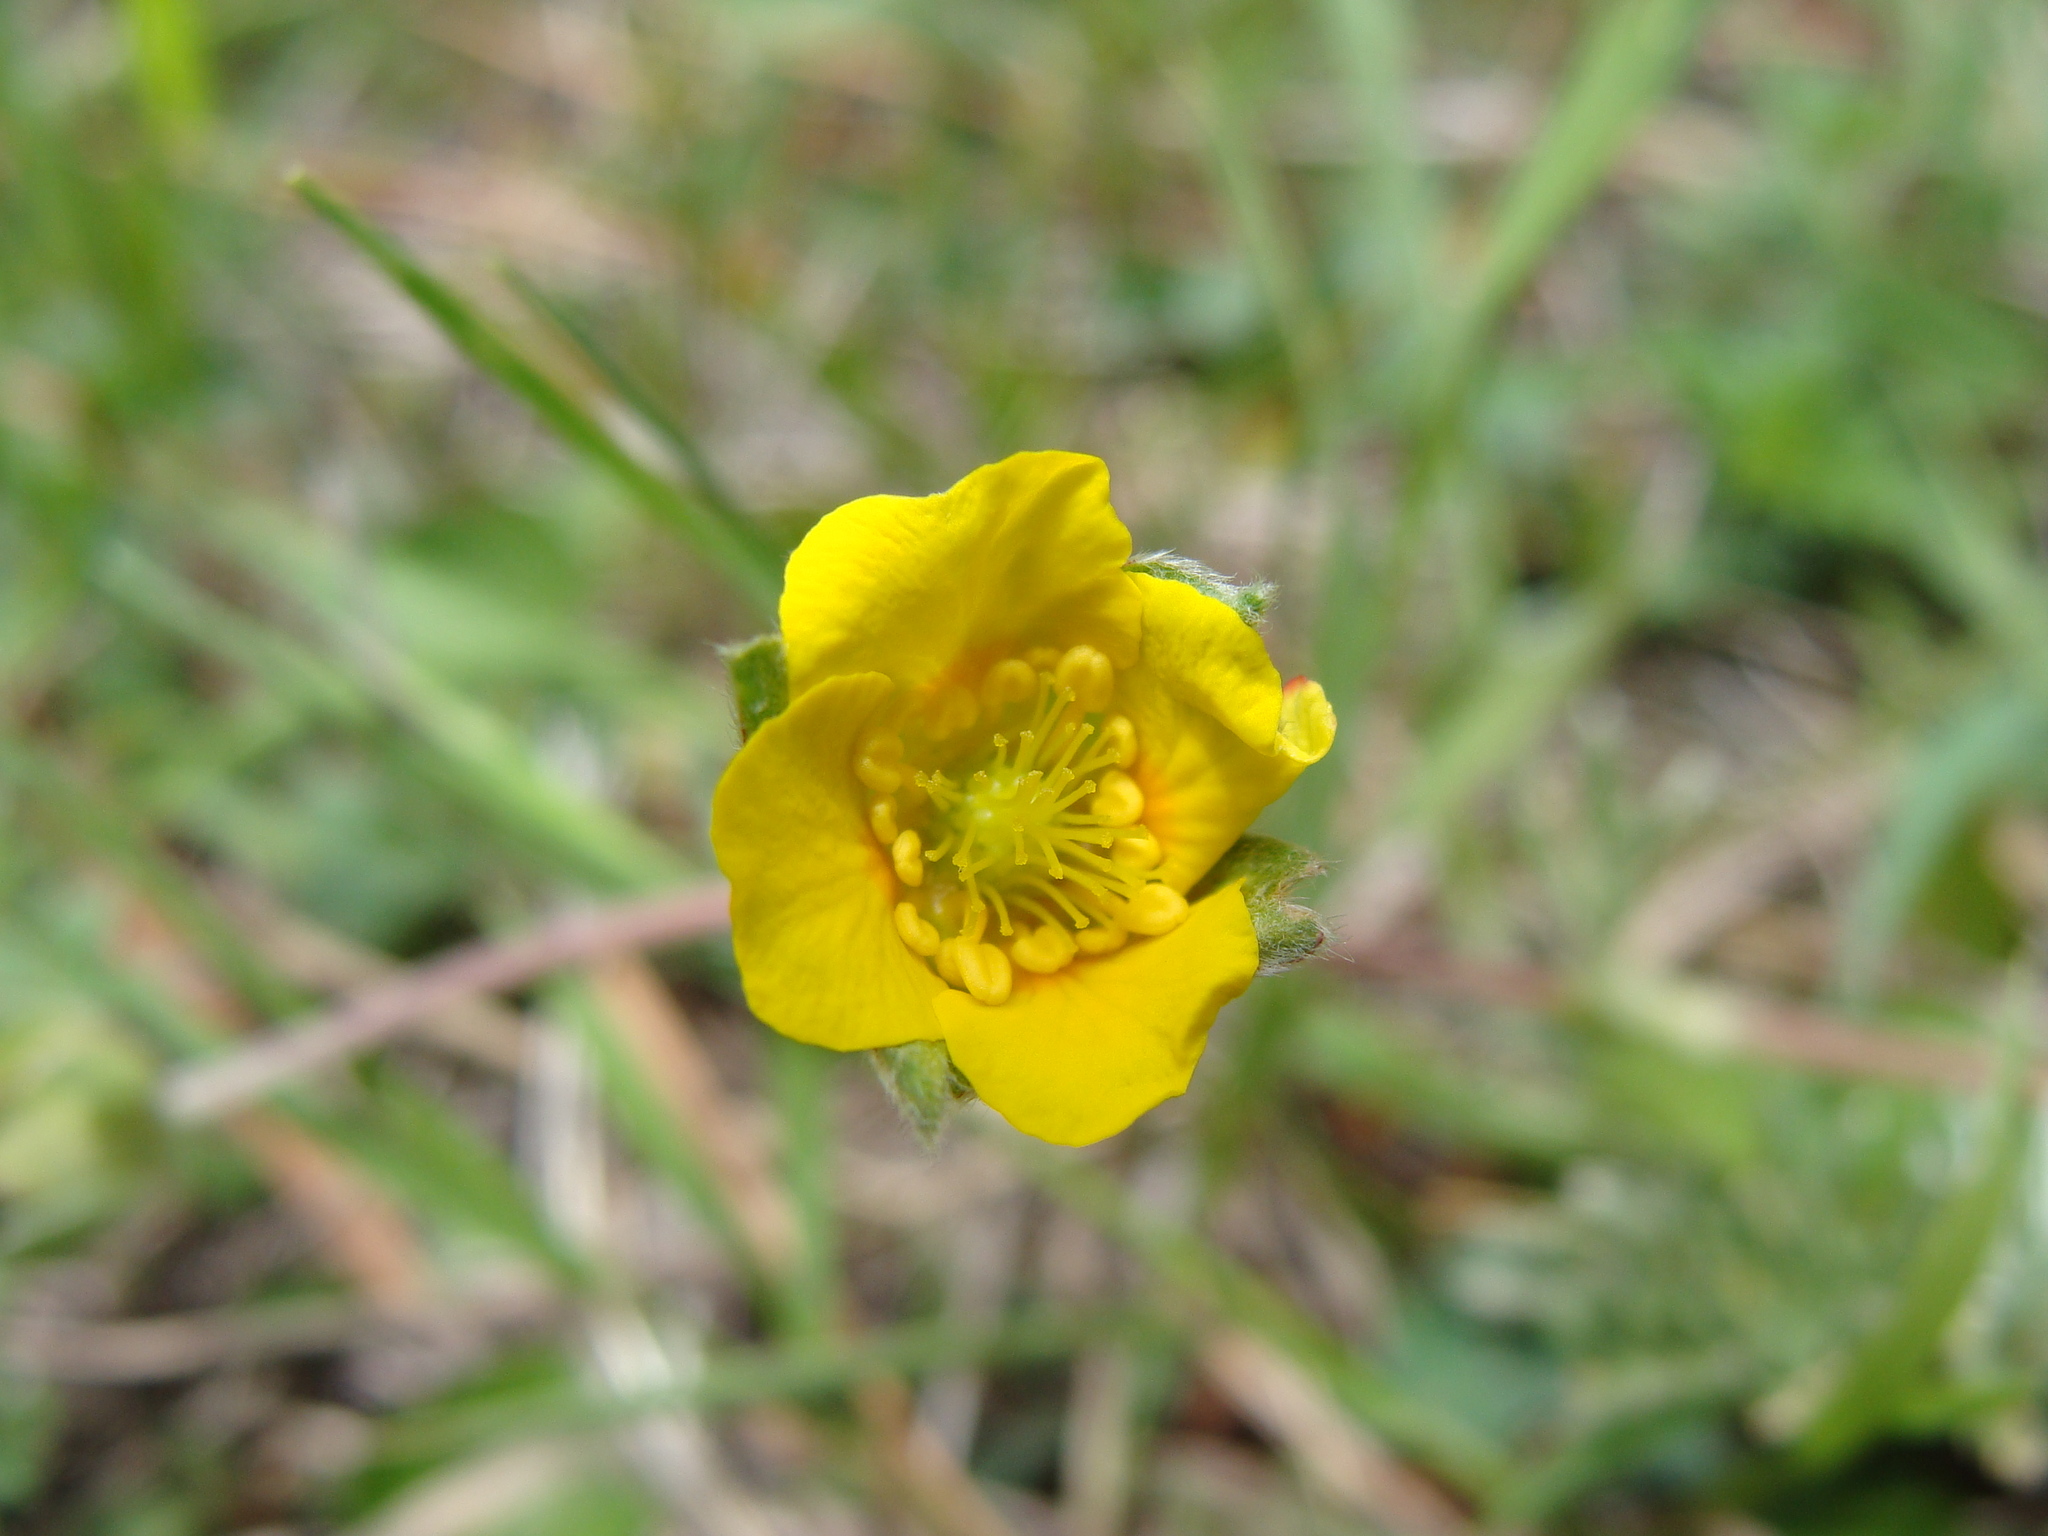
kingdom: Plantae
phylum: Tracheophyta
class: Magnoliopsida
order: Rosales
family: Rosaceae
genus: Potentilla
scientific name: Potentilla candicans
